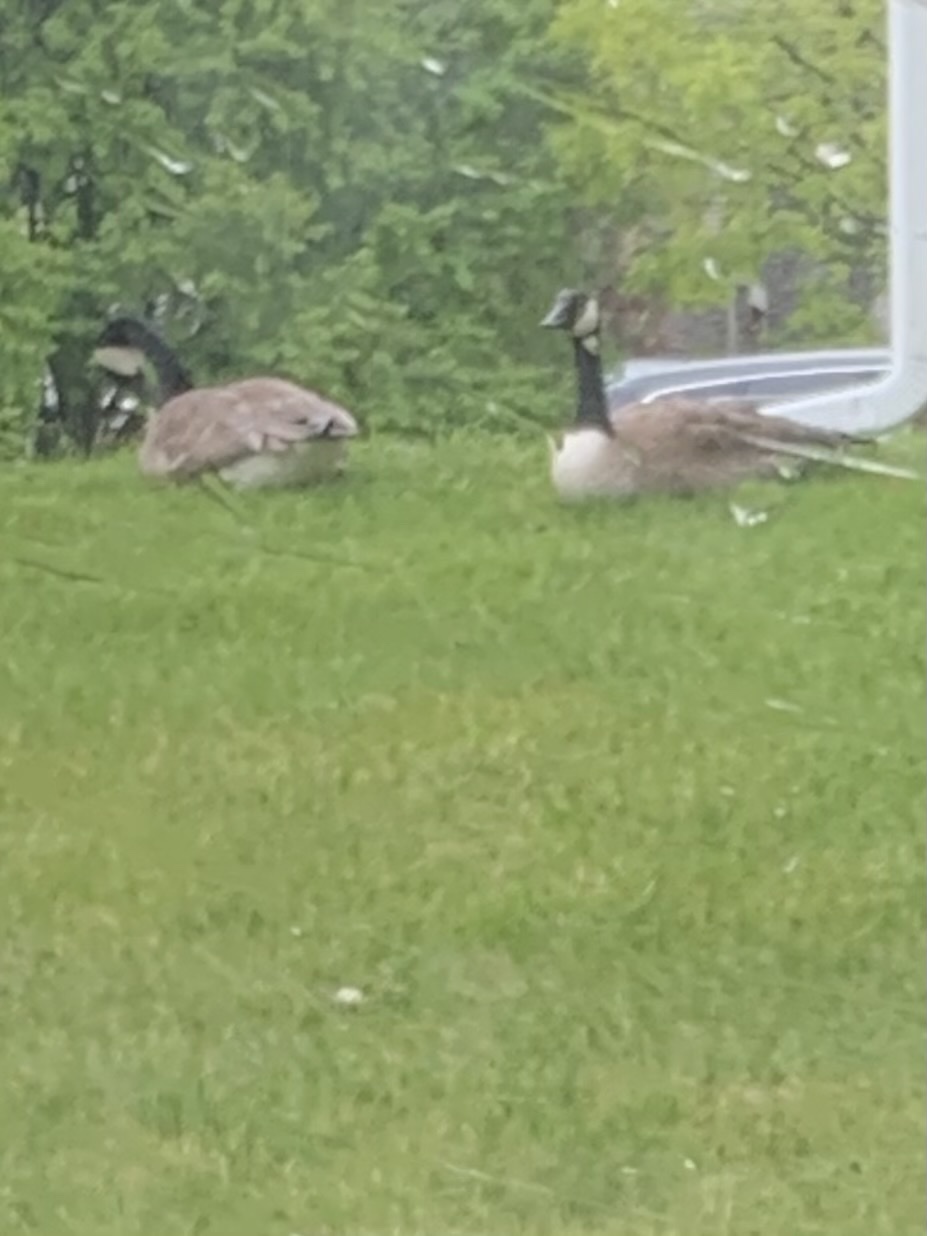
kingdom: Animalia
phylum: Chordata
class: Aves
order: Anseriformes
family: Anatidae
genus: Branta
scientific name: Branta canadensis
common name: Canada goose
